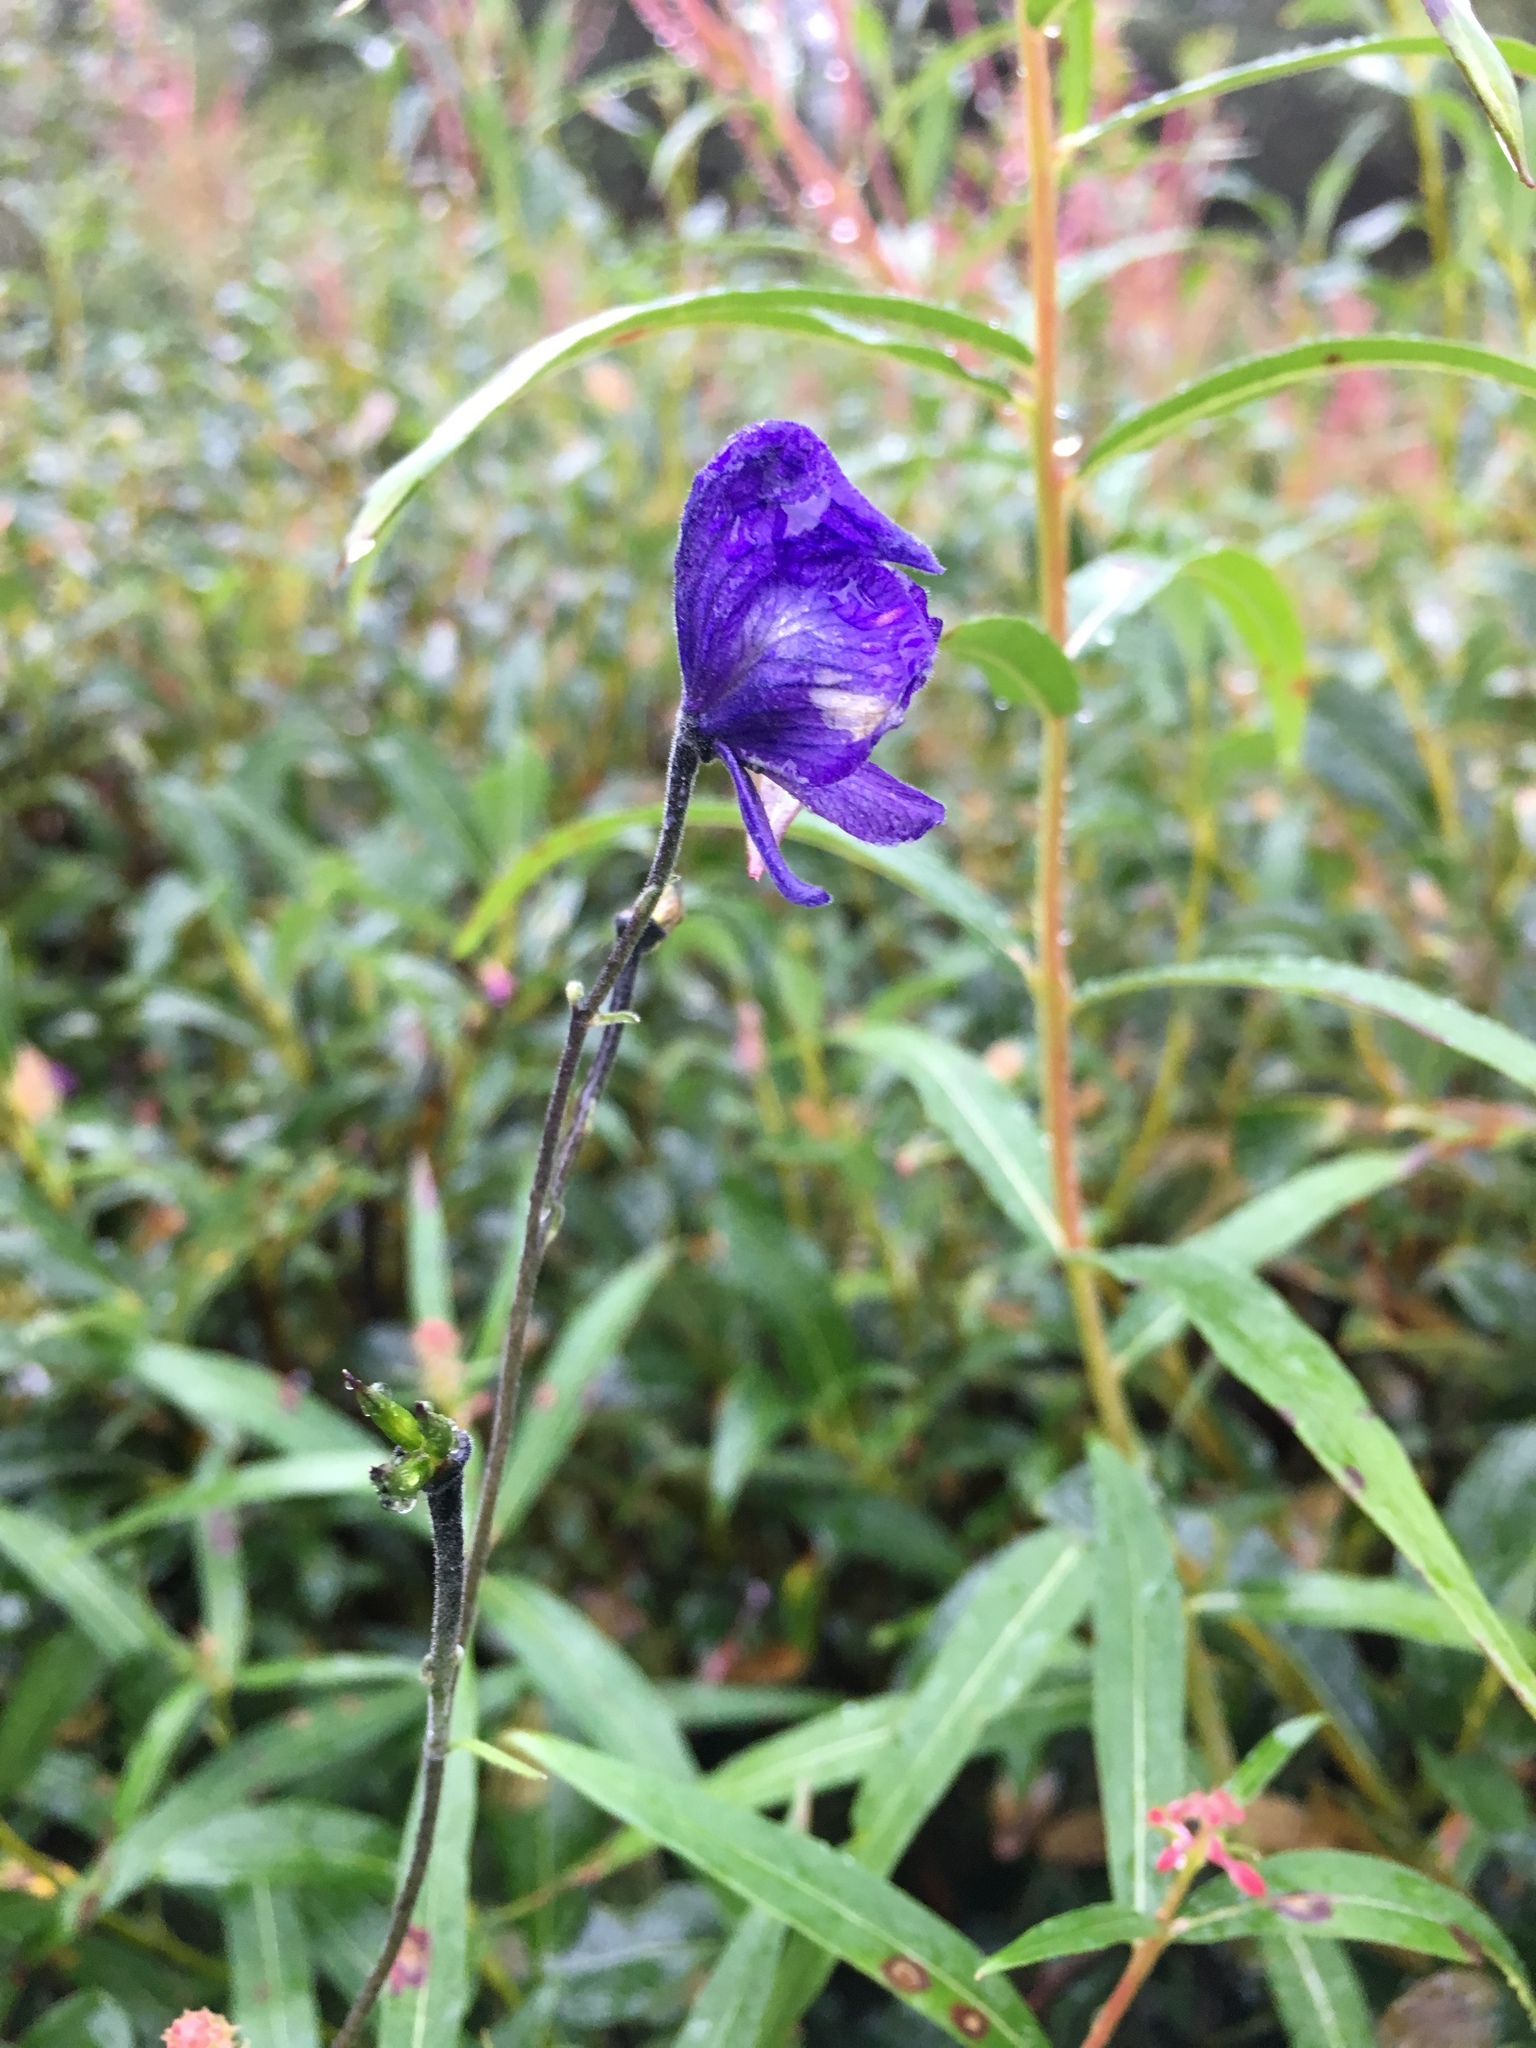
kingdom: Plantae
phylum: Tracheophyta
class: Magnoliopsida
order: Ranunculales
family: Ranunculaceae
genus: Aconitum
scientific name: Aconitum delphiniifolium
